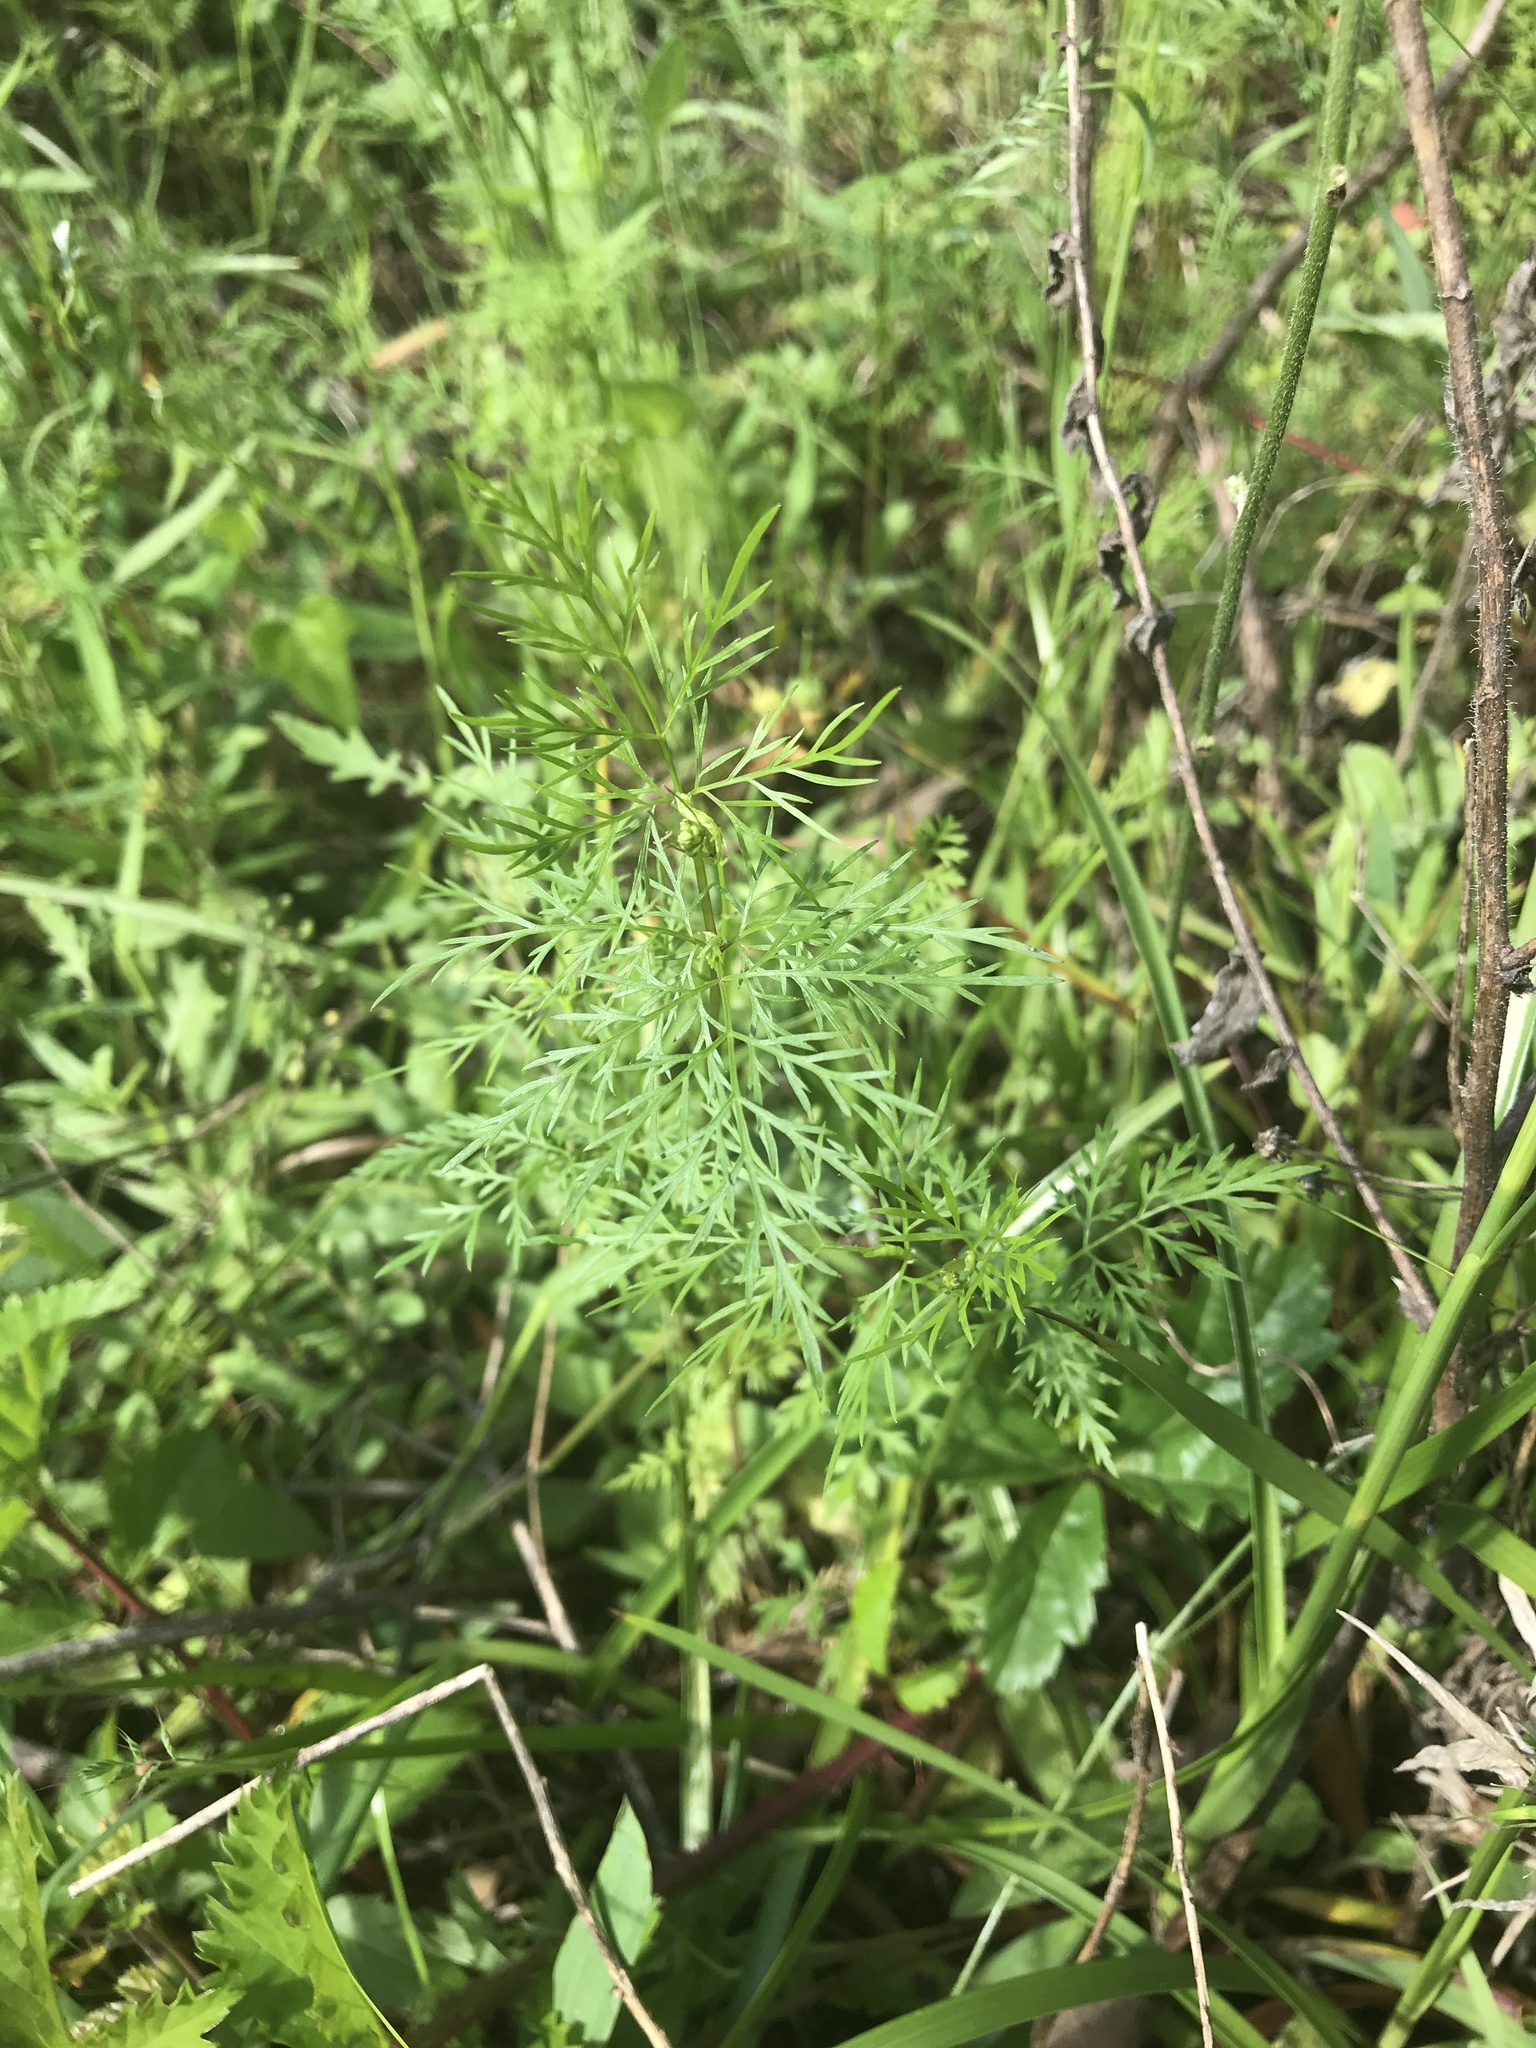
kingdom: Plantae
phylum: Tracheophyta
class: Magnoliopsida
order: Apiales
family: Apiaceae
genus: Trepocarpus
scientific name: Trepocarpus aethusae
